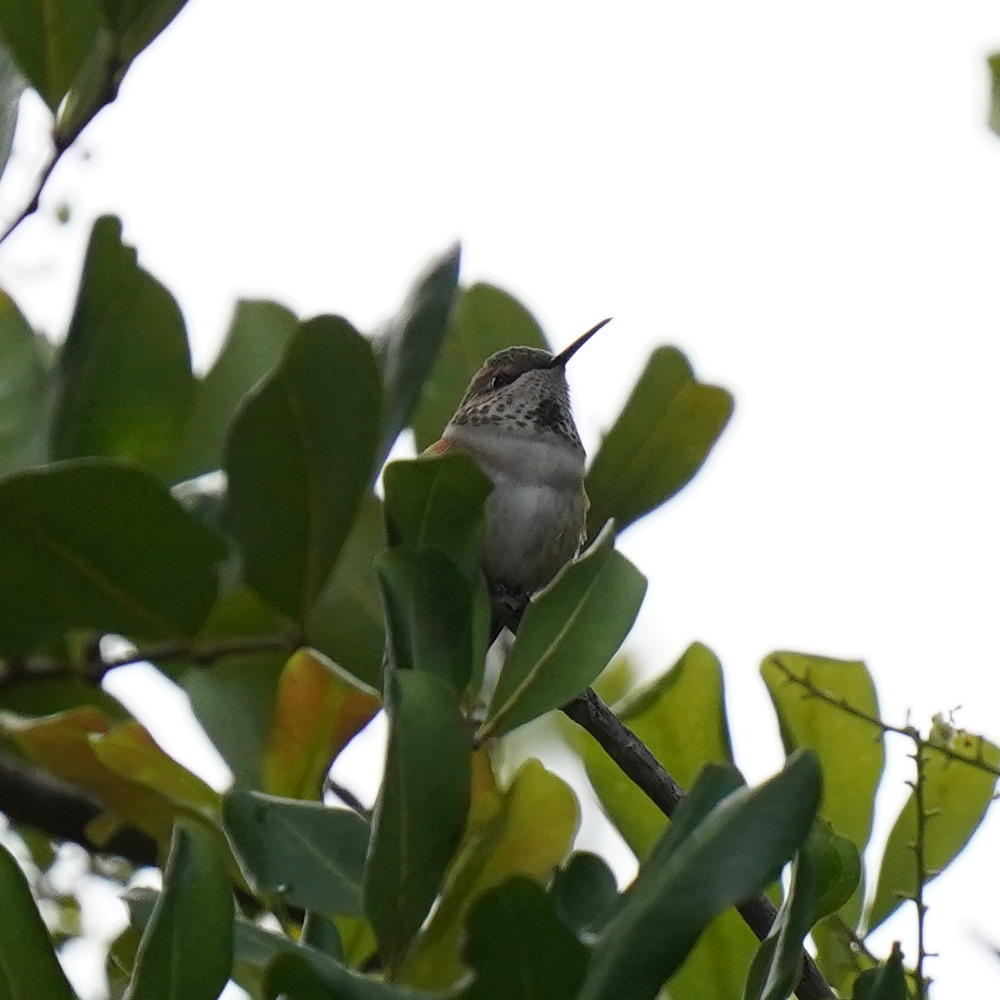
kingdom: Animalia
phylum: Chordata
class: Aves
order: Apodiformes
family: Trochilidae
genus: Selasphorus
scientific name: Selasphorus sasin
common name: Allen's hummingbird
